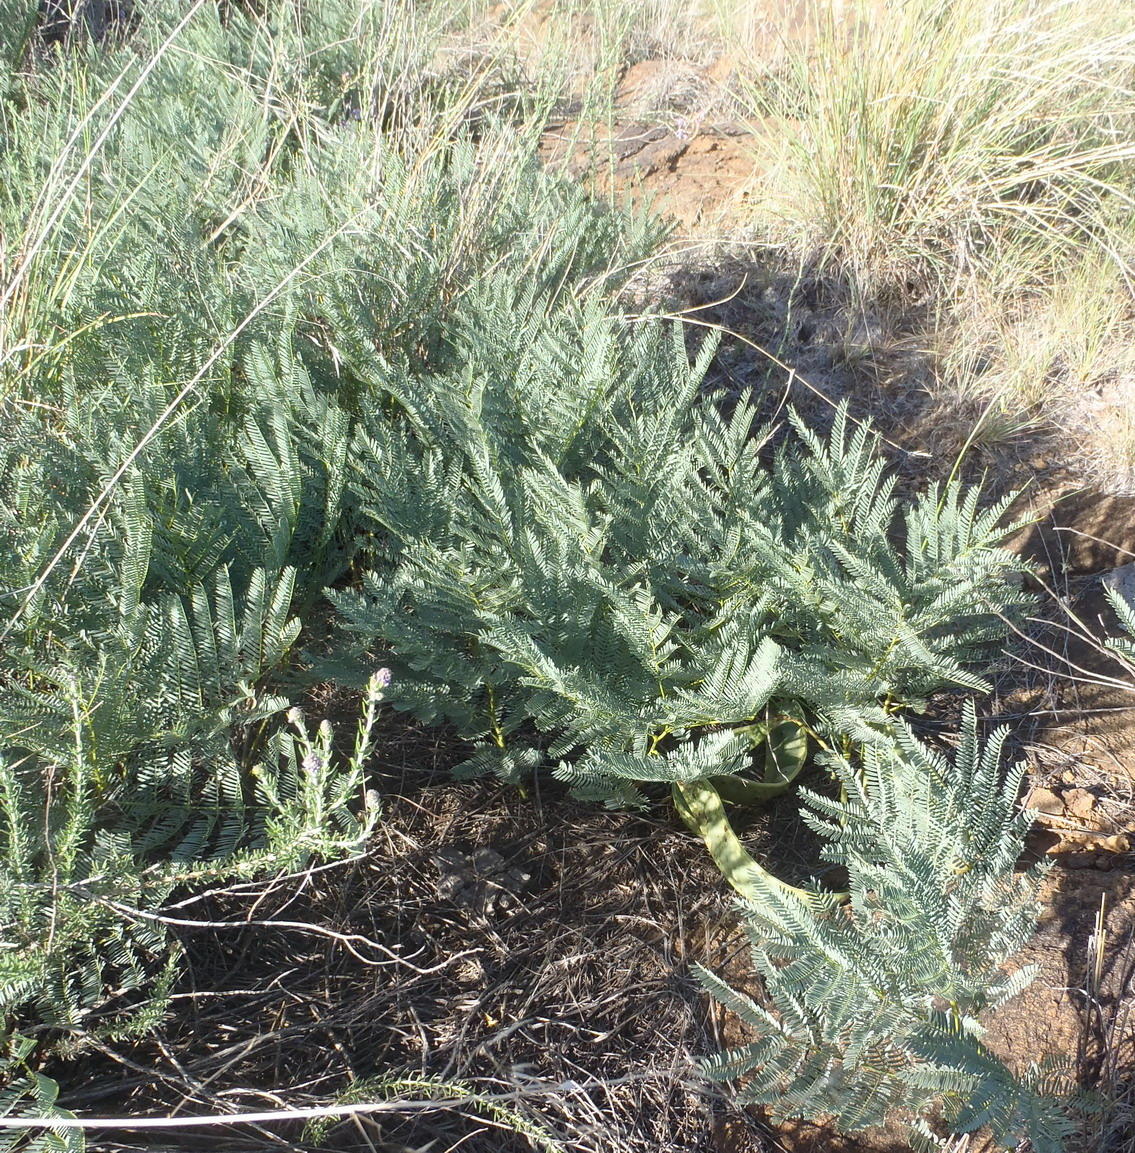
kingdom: Plantae
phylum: Tracheophyta
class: Magnoliopsida
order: Fabales
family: Fabaceae
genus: Elephantorrhiza
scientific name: Elephantorrhiza elephantina
